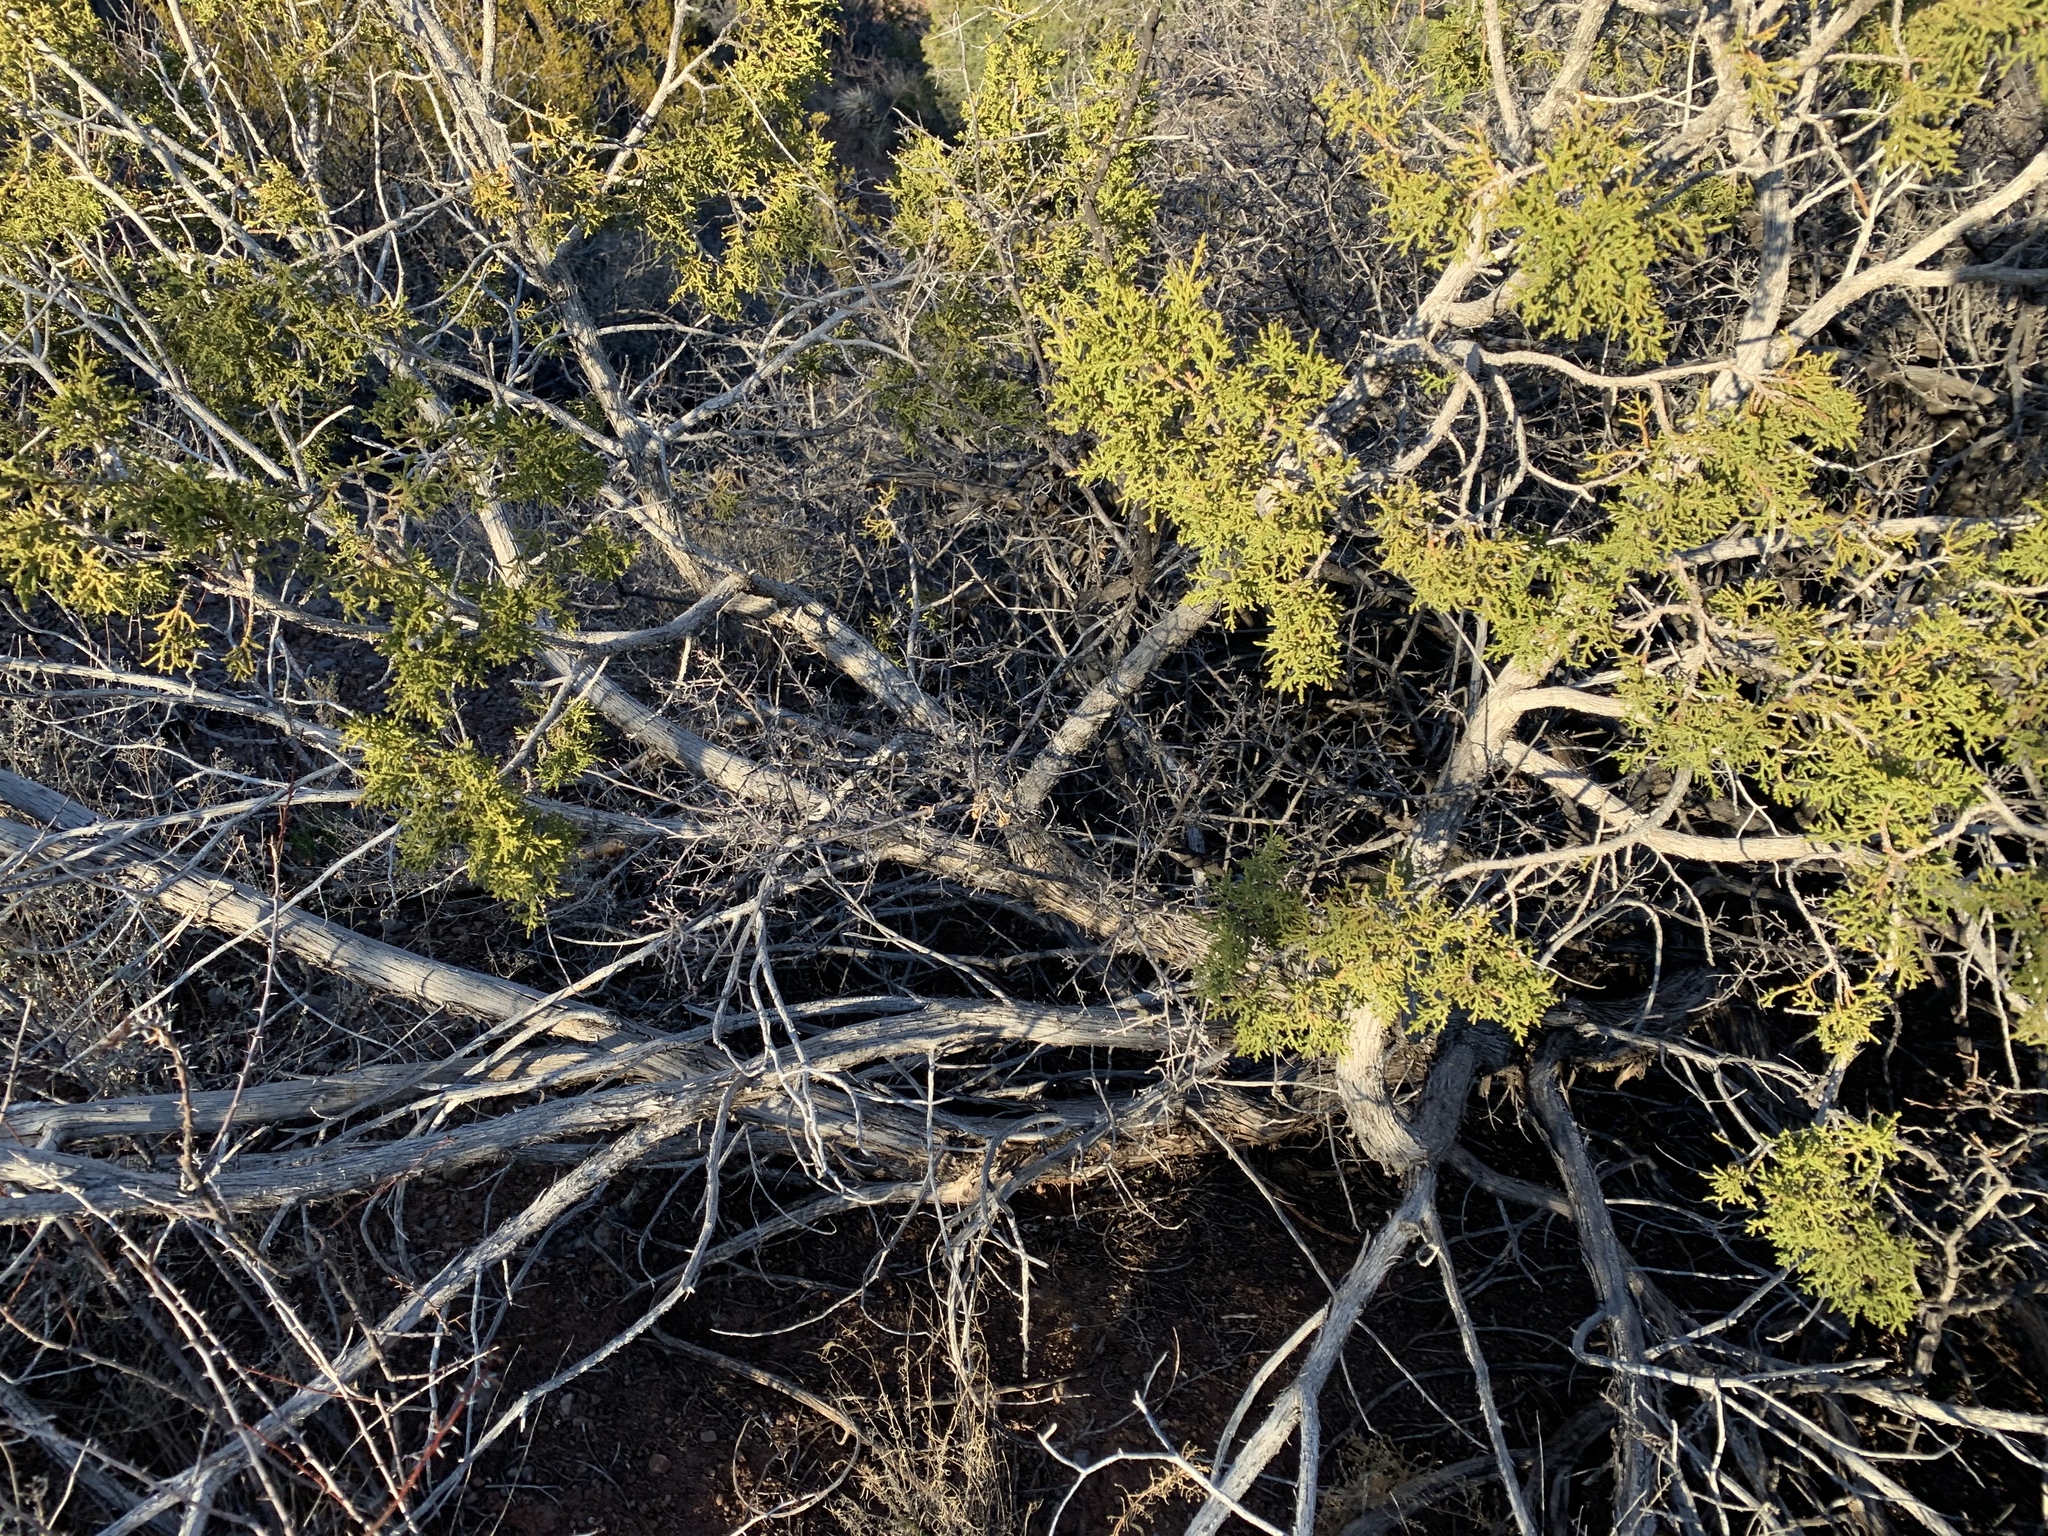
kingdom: Plantae
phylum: Tracheophyta
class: Pinopsida
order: Pinales
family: Cupressaceae
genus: Juniperus
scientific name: Juniperus monosperma
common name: One-seed juniper
